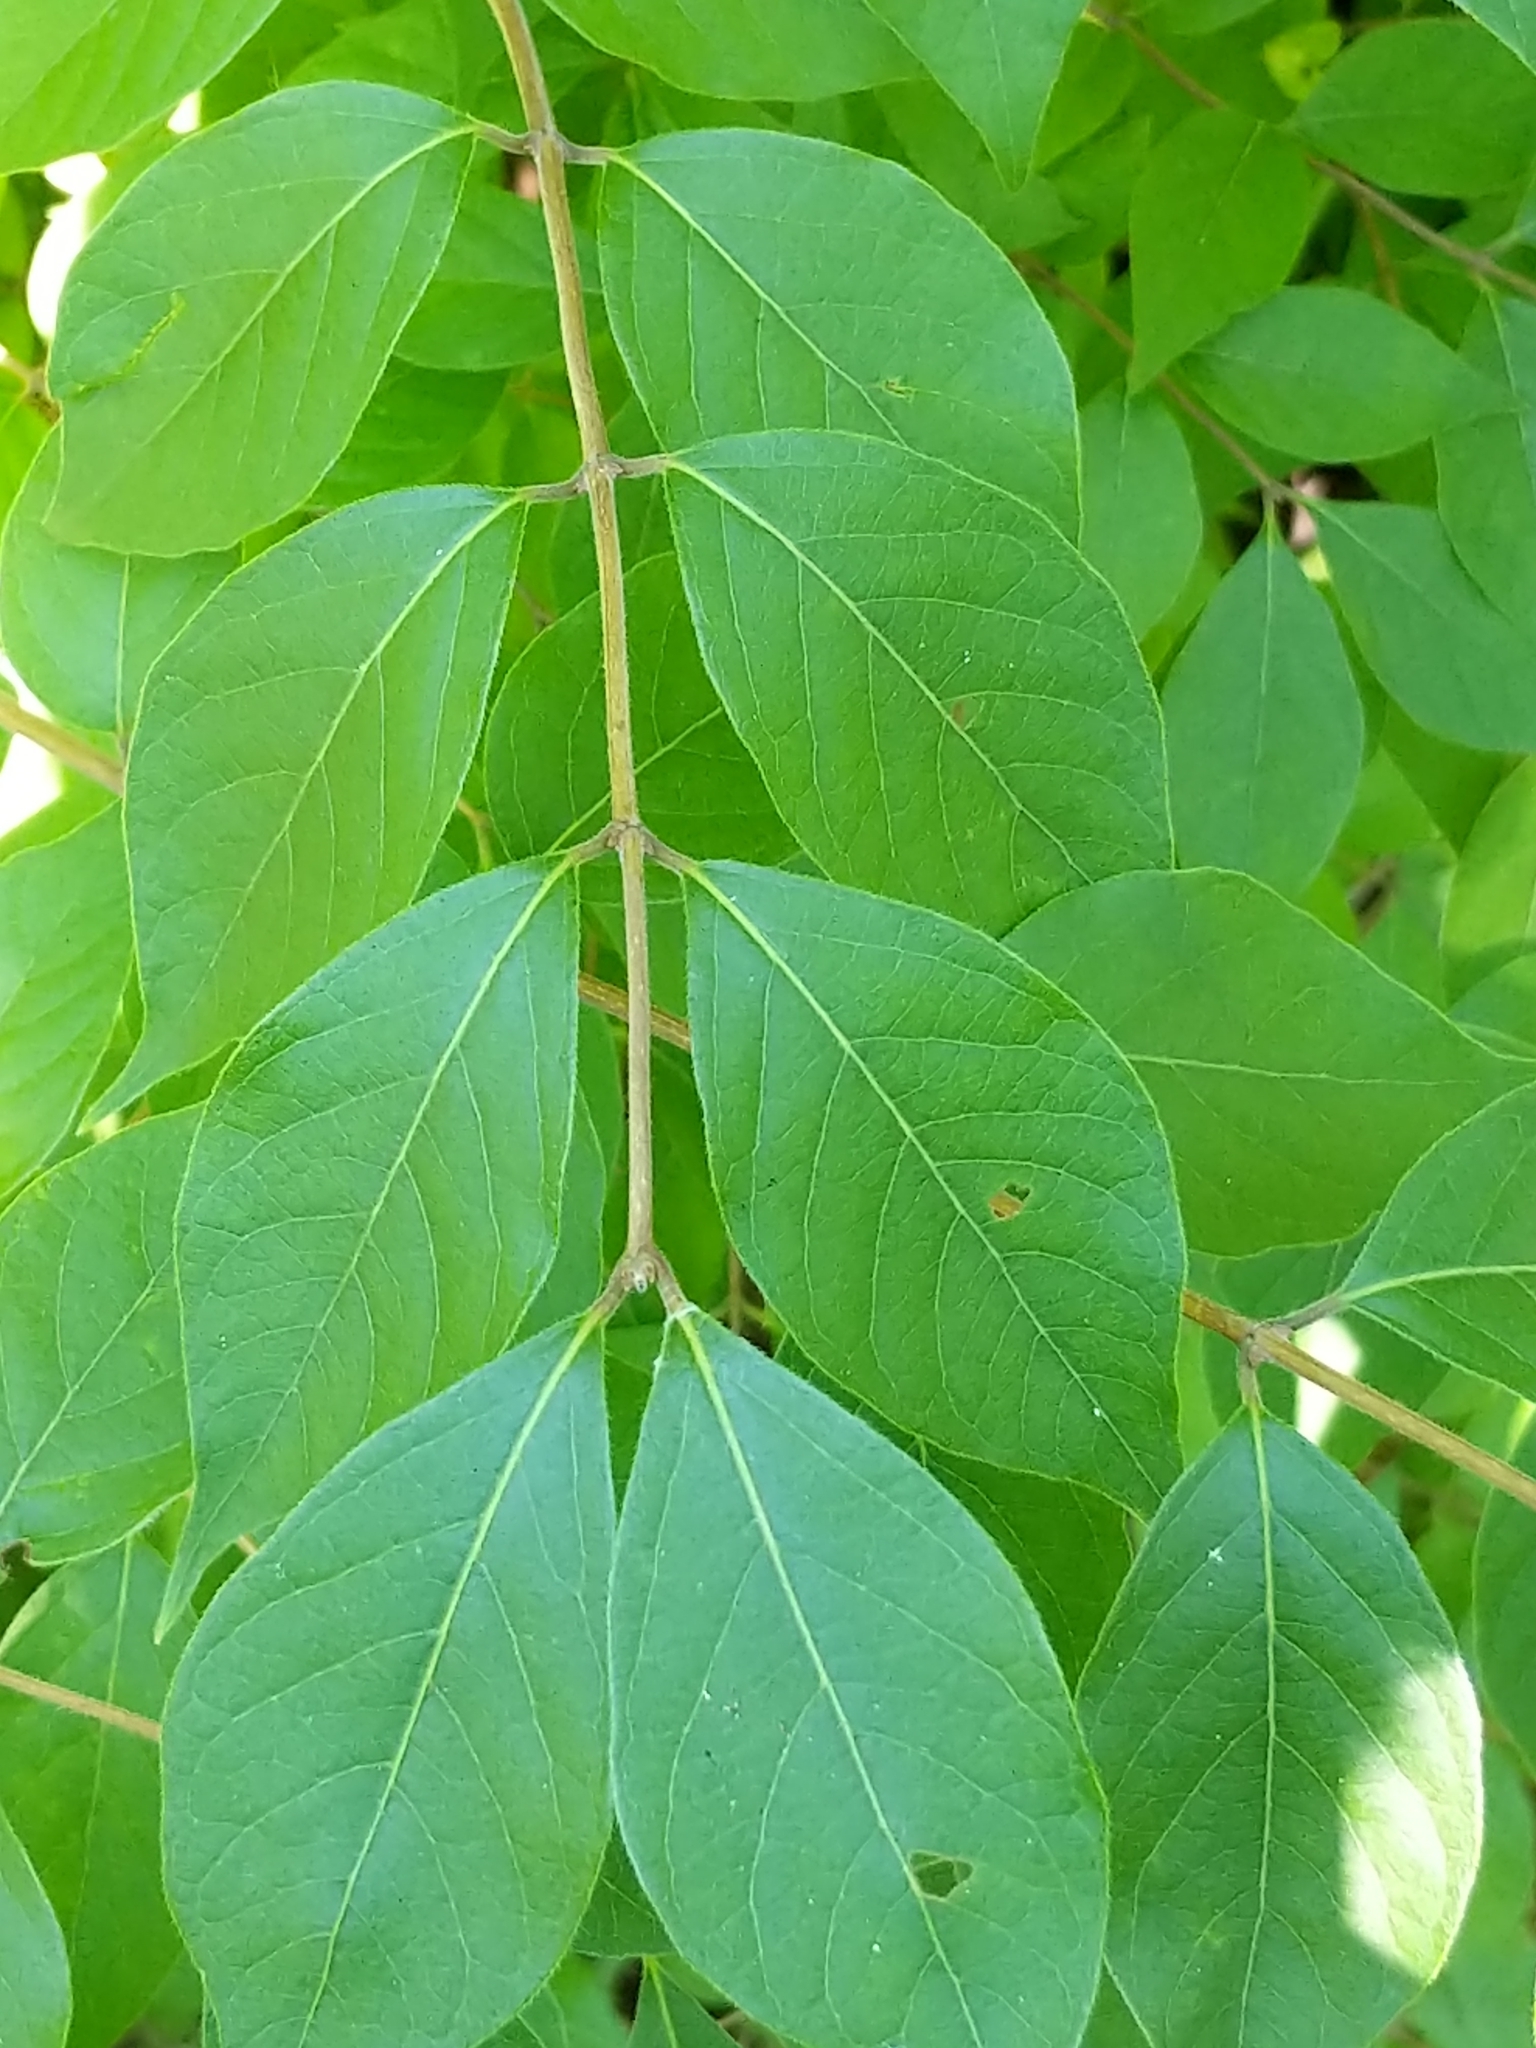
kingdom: Plantae
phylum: Tracheophyta
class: Magnoliopsida
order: Dipsacales
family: Caprifoliaceae
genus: Lonicera
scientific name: Lonicera maackii
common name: Amur honeysuckle
